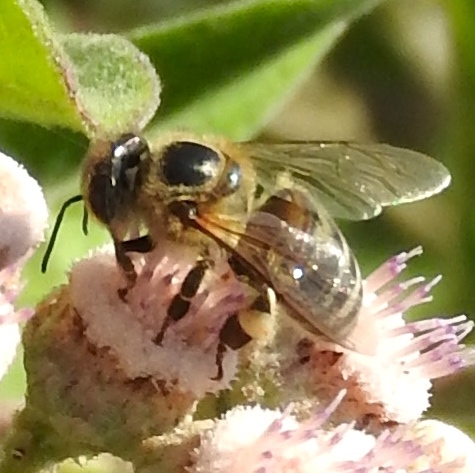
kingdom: Animalia
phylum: Arthropoda
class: Insecta
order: Hymenoptera
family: Apidae
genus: Apis
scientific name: Apis mellifera
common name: Honey bee
